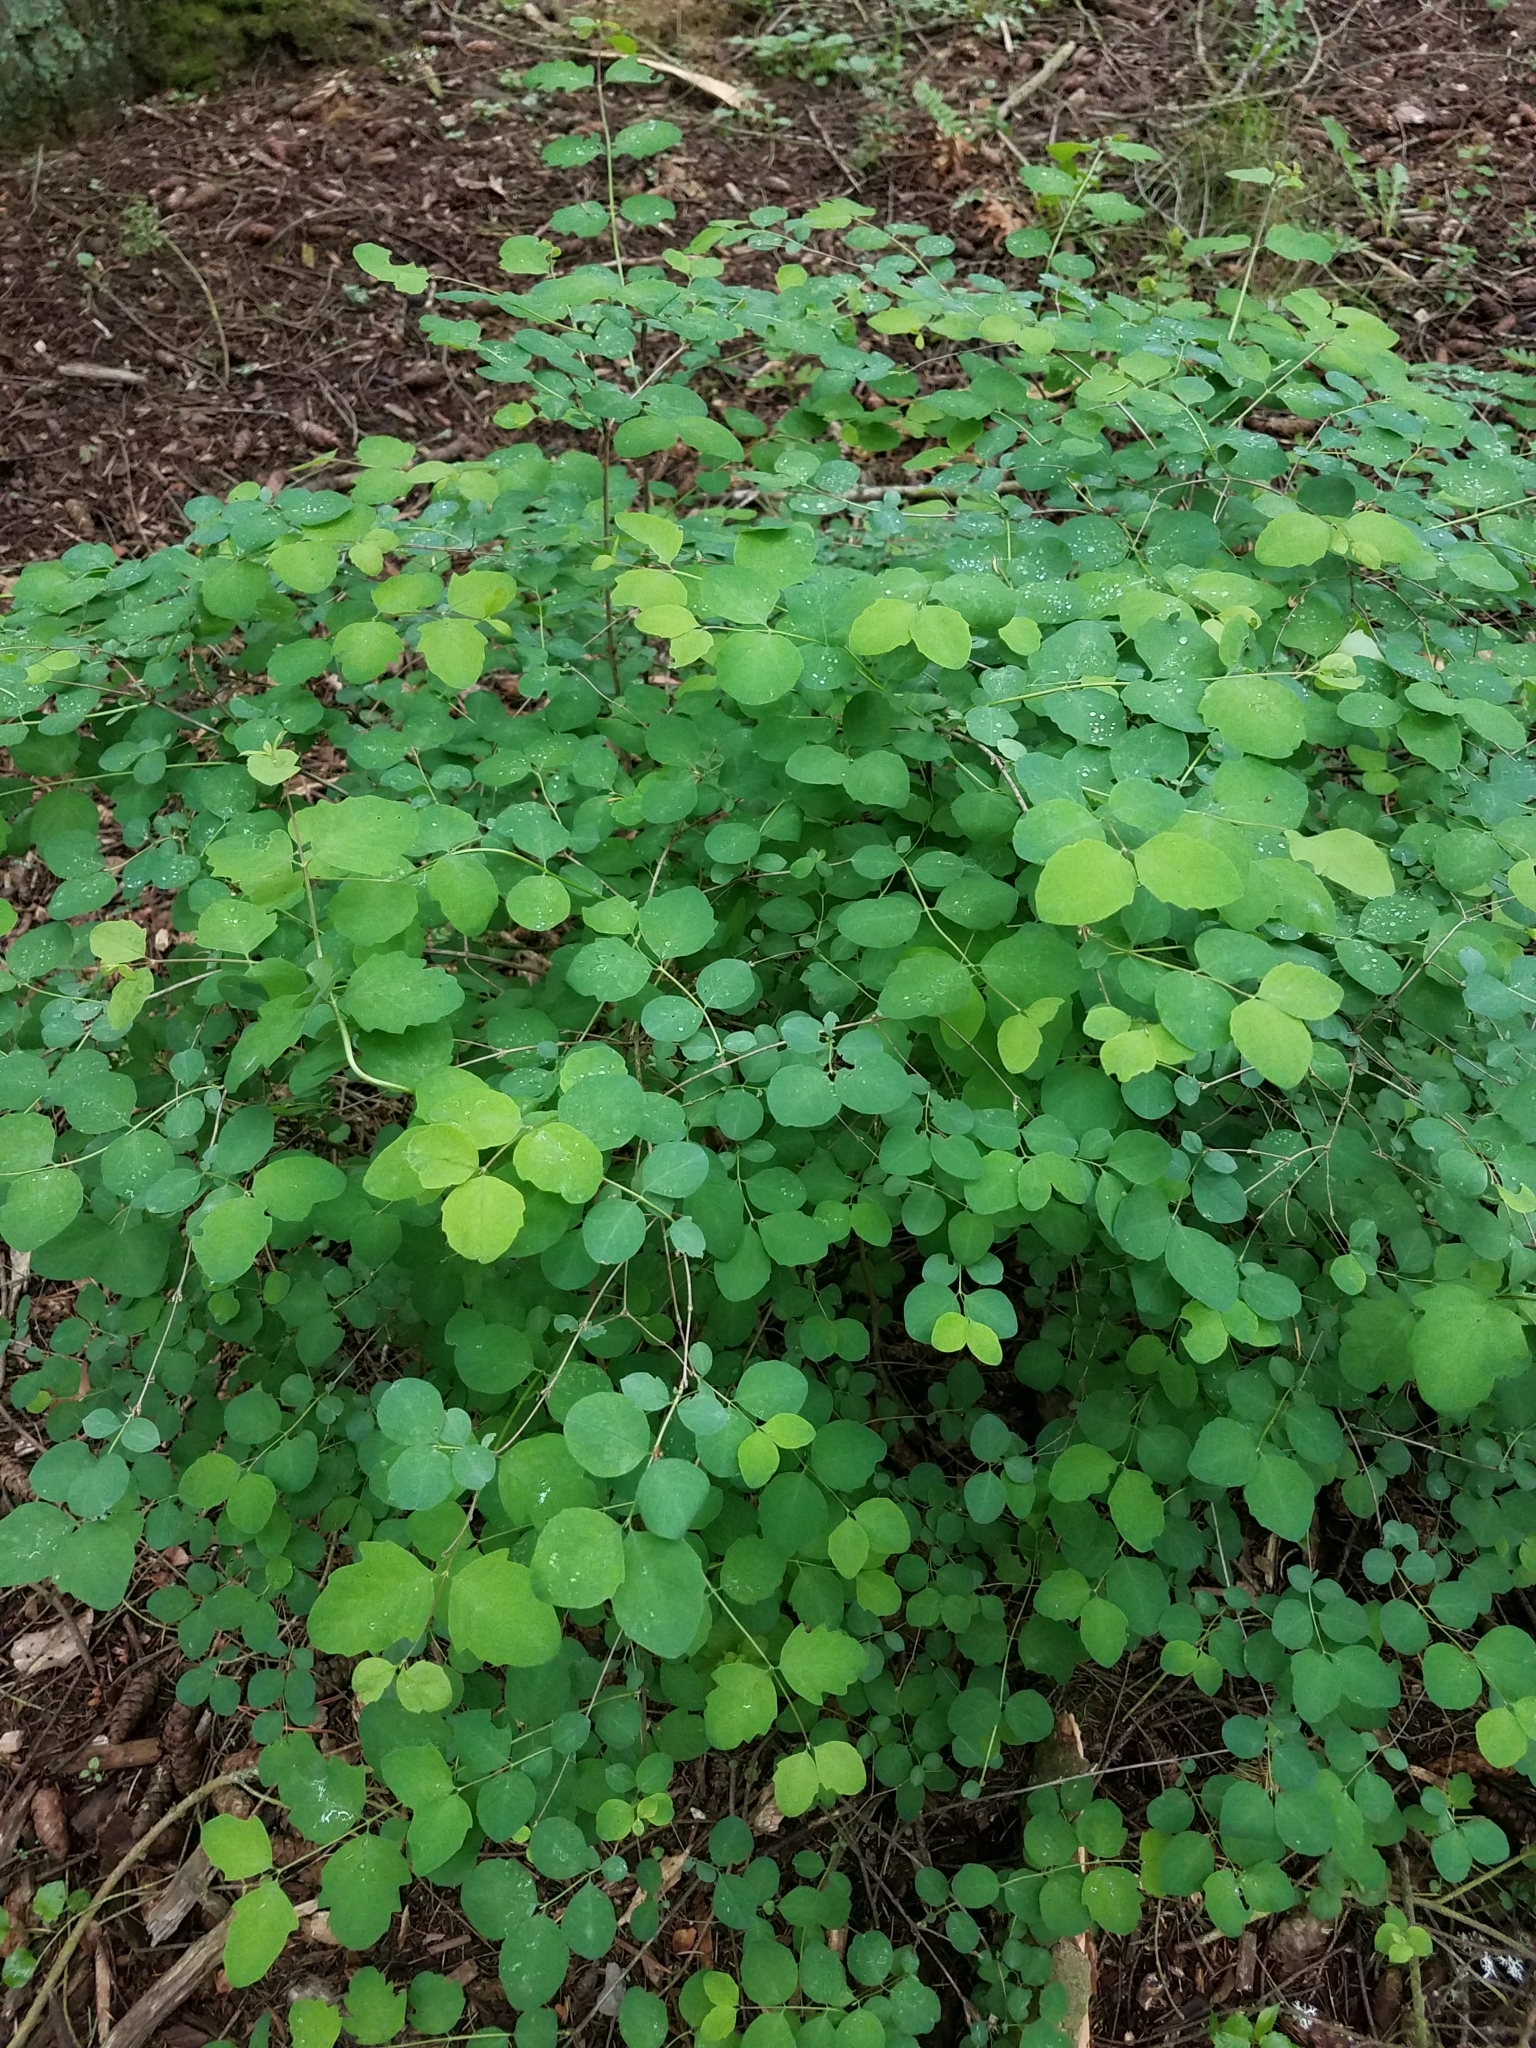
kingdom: Plantae
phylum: Tracheophyta
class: Magnoliopsida
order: Dipsacales
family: Caprifoliaceae
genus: Symphoricarpos
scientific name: Symphoricarpos albus
